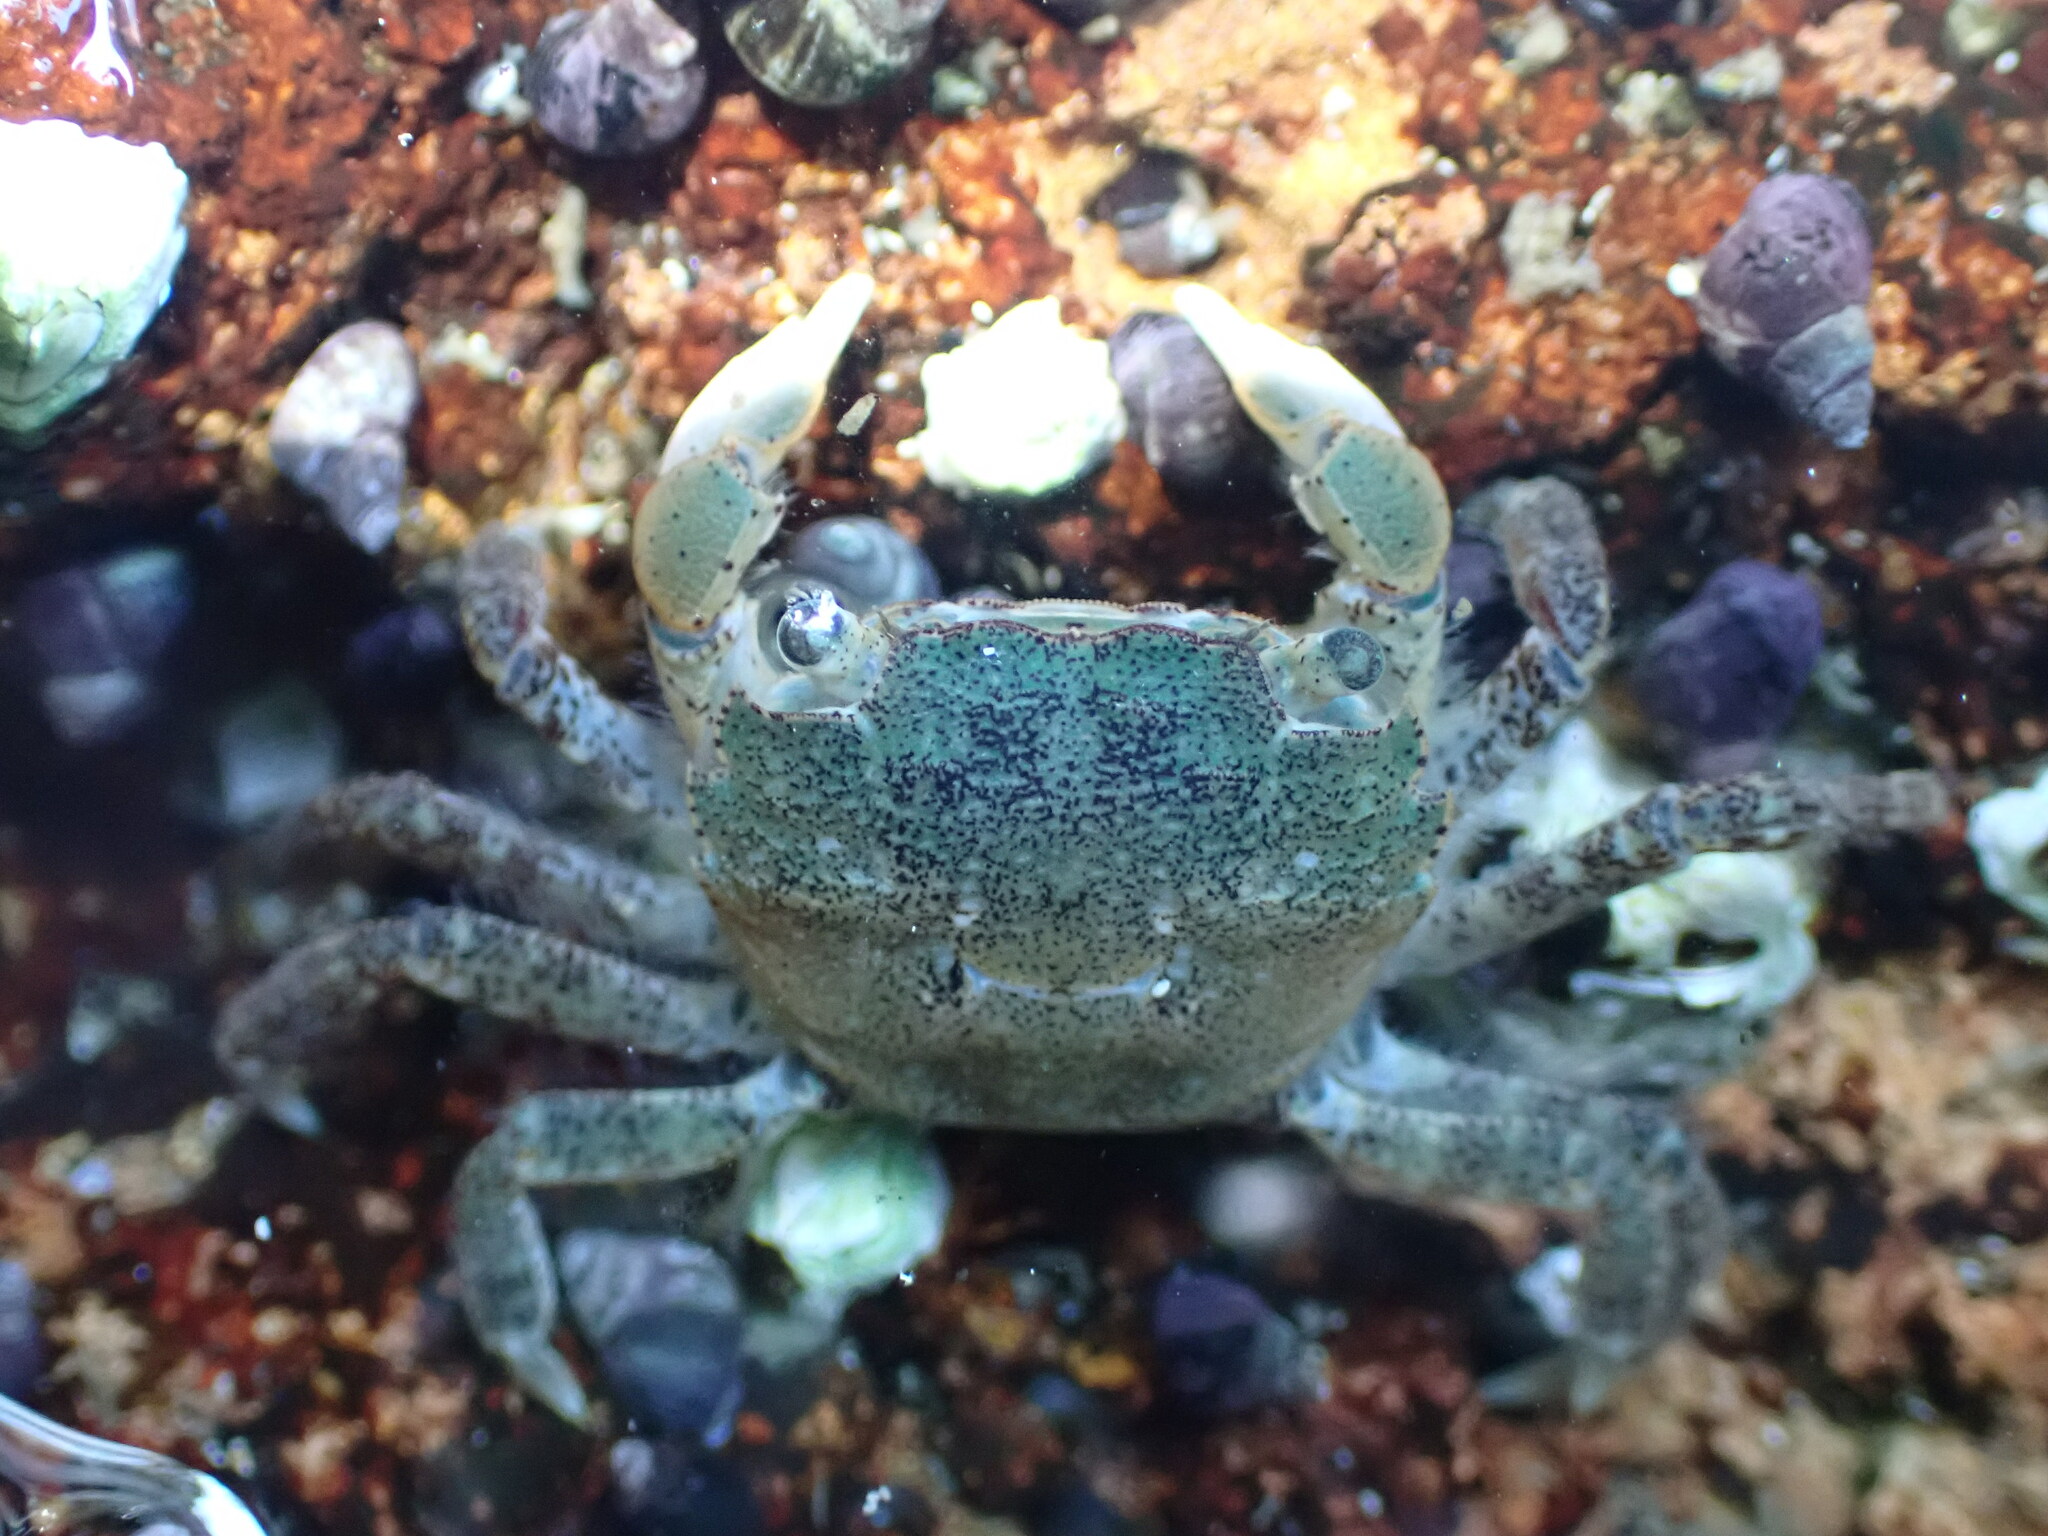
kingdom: Animalia
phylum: Arthropoda
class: Malacostraca
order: Decapoda
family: Varunidae
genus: Hemigrapsus
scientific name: Hemigrapsus oregonensis
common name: Yellow shore crab
